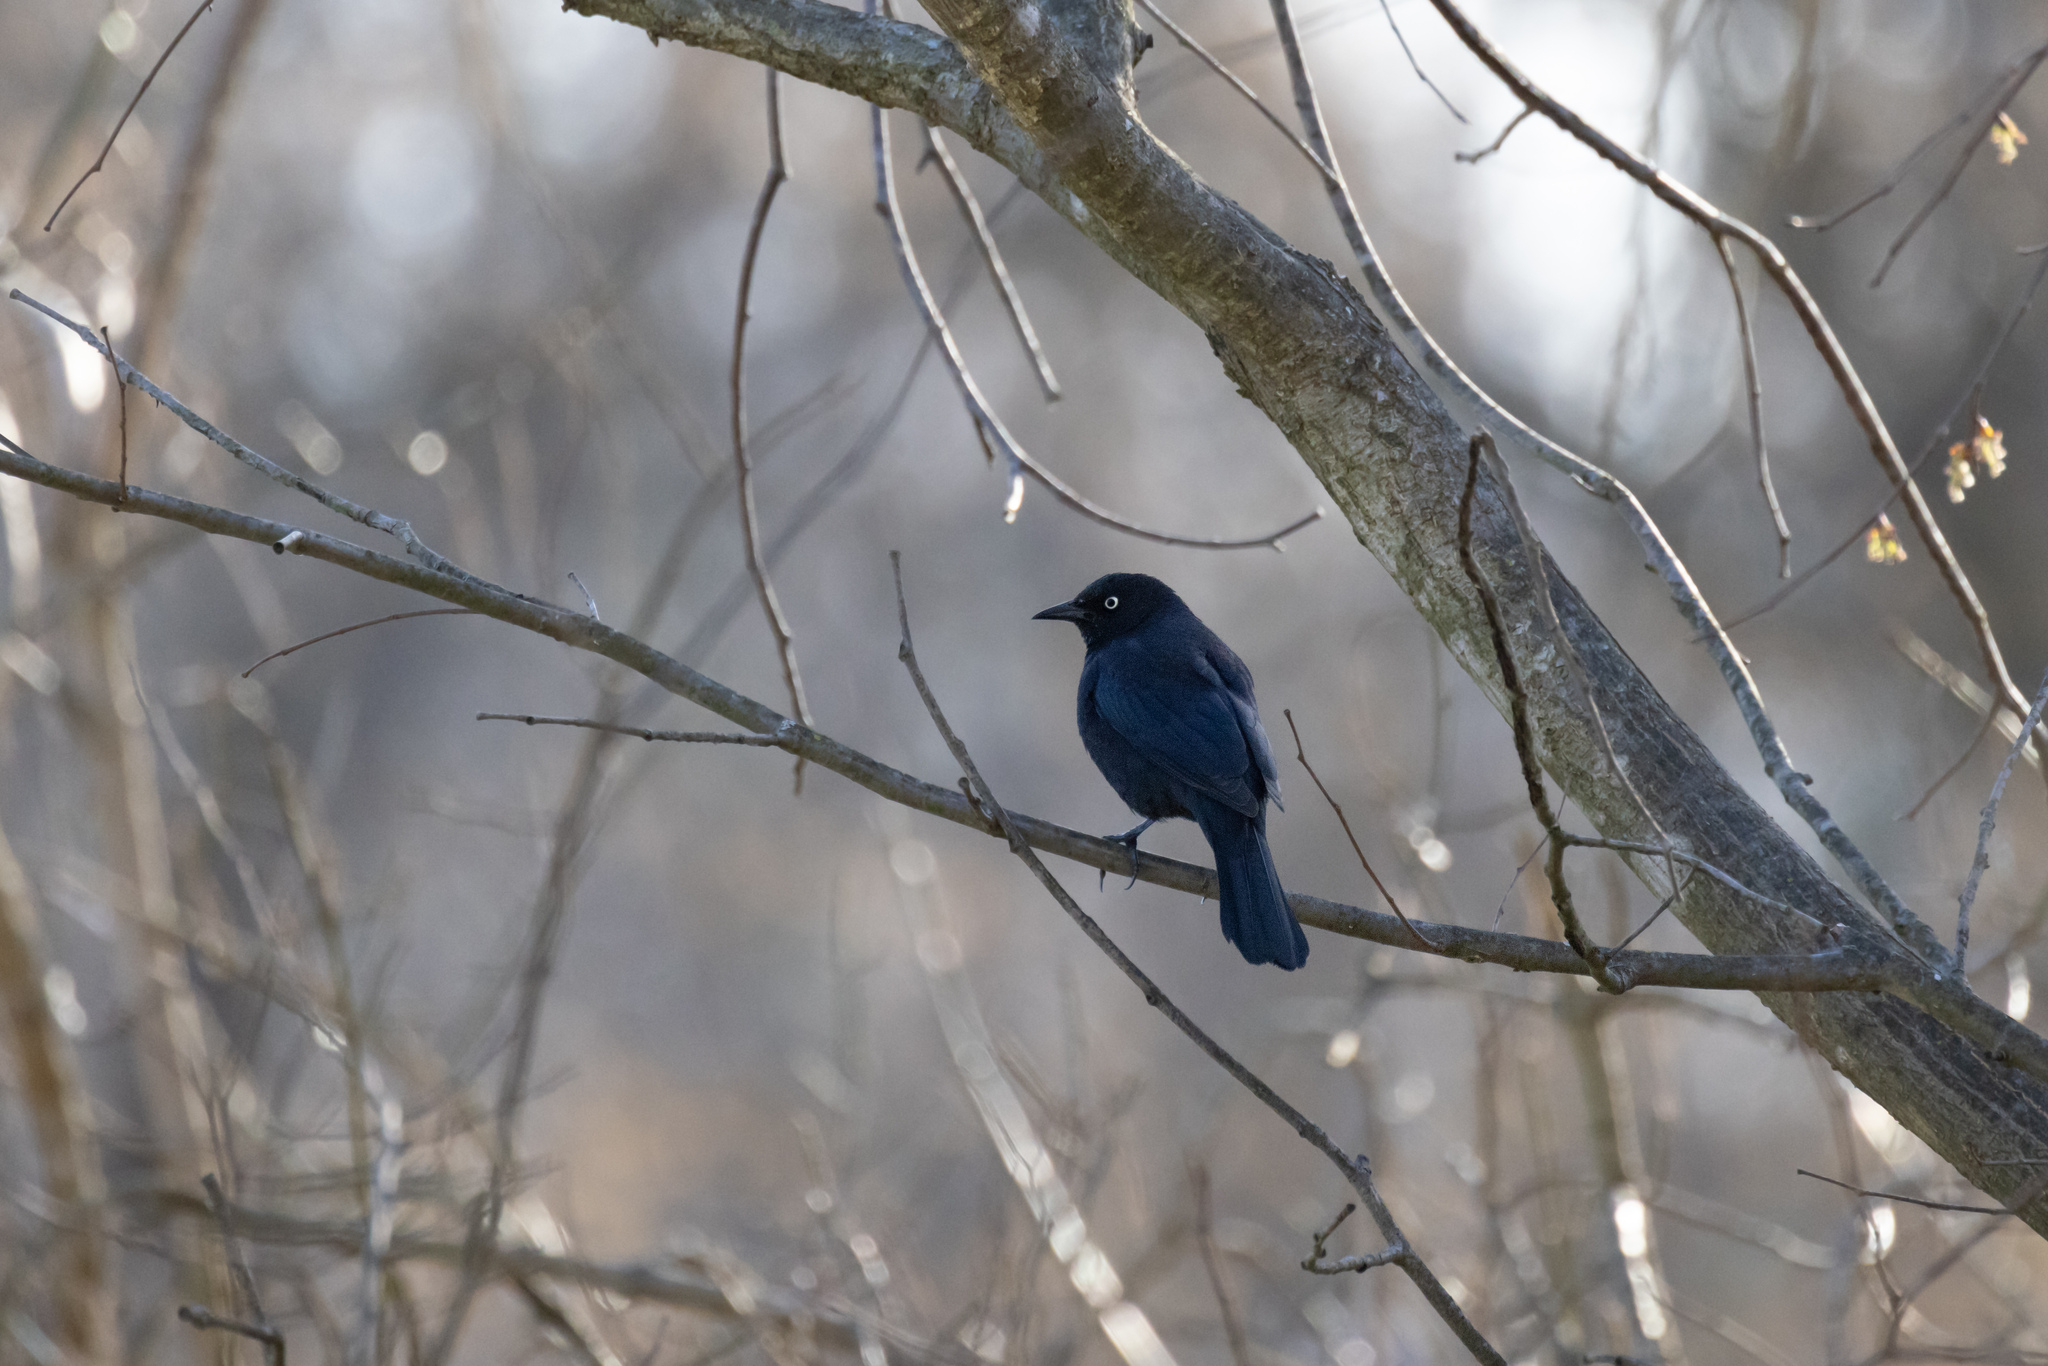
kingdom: Animalia
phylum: Chordata
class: Aves
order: Passeriformes
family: Icteridae
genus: Euphagus
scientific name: Euphagus carolinus
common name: Rusty blackbird
